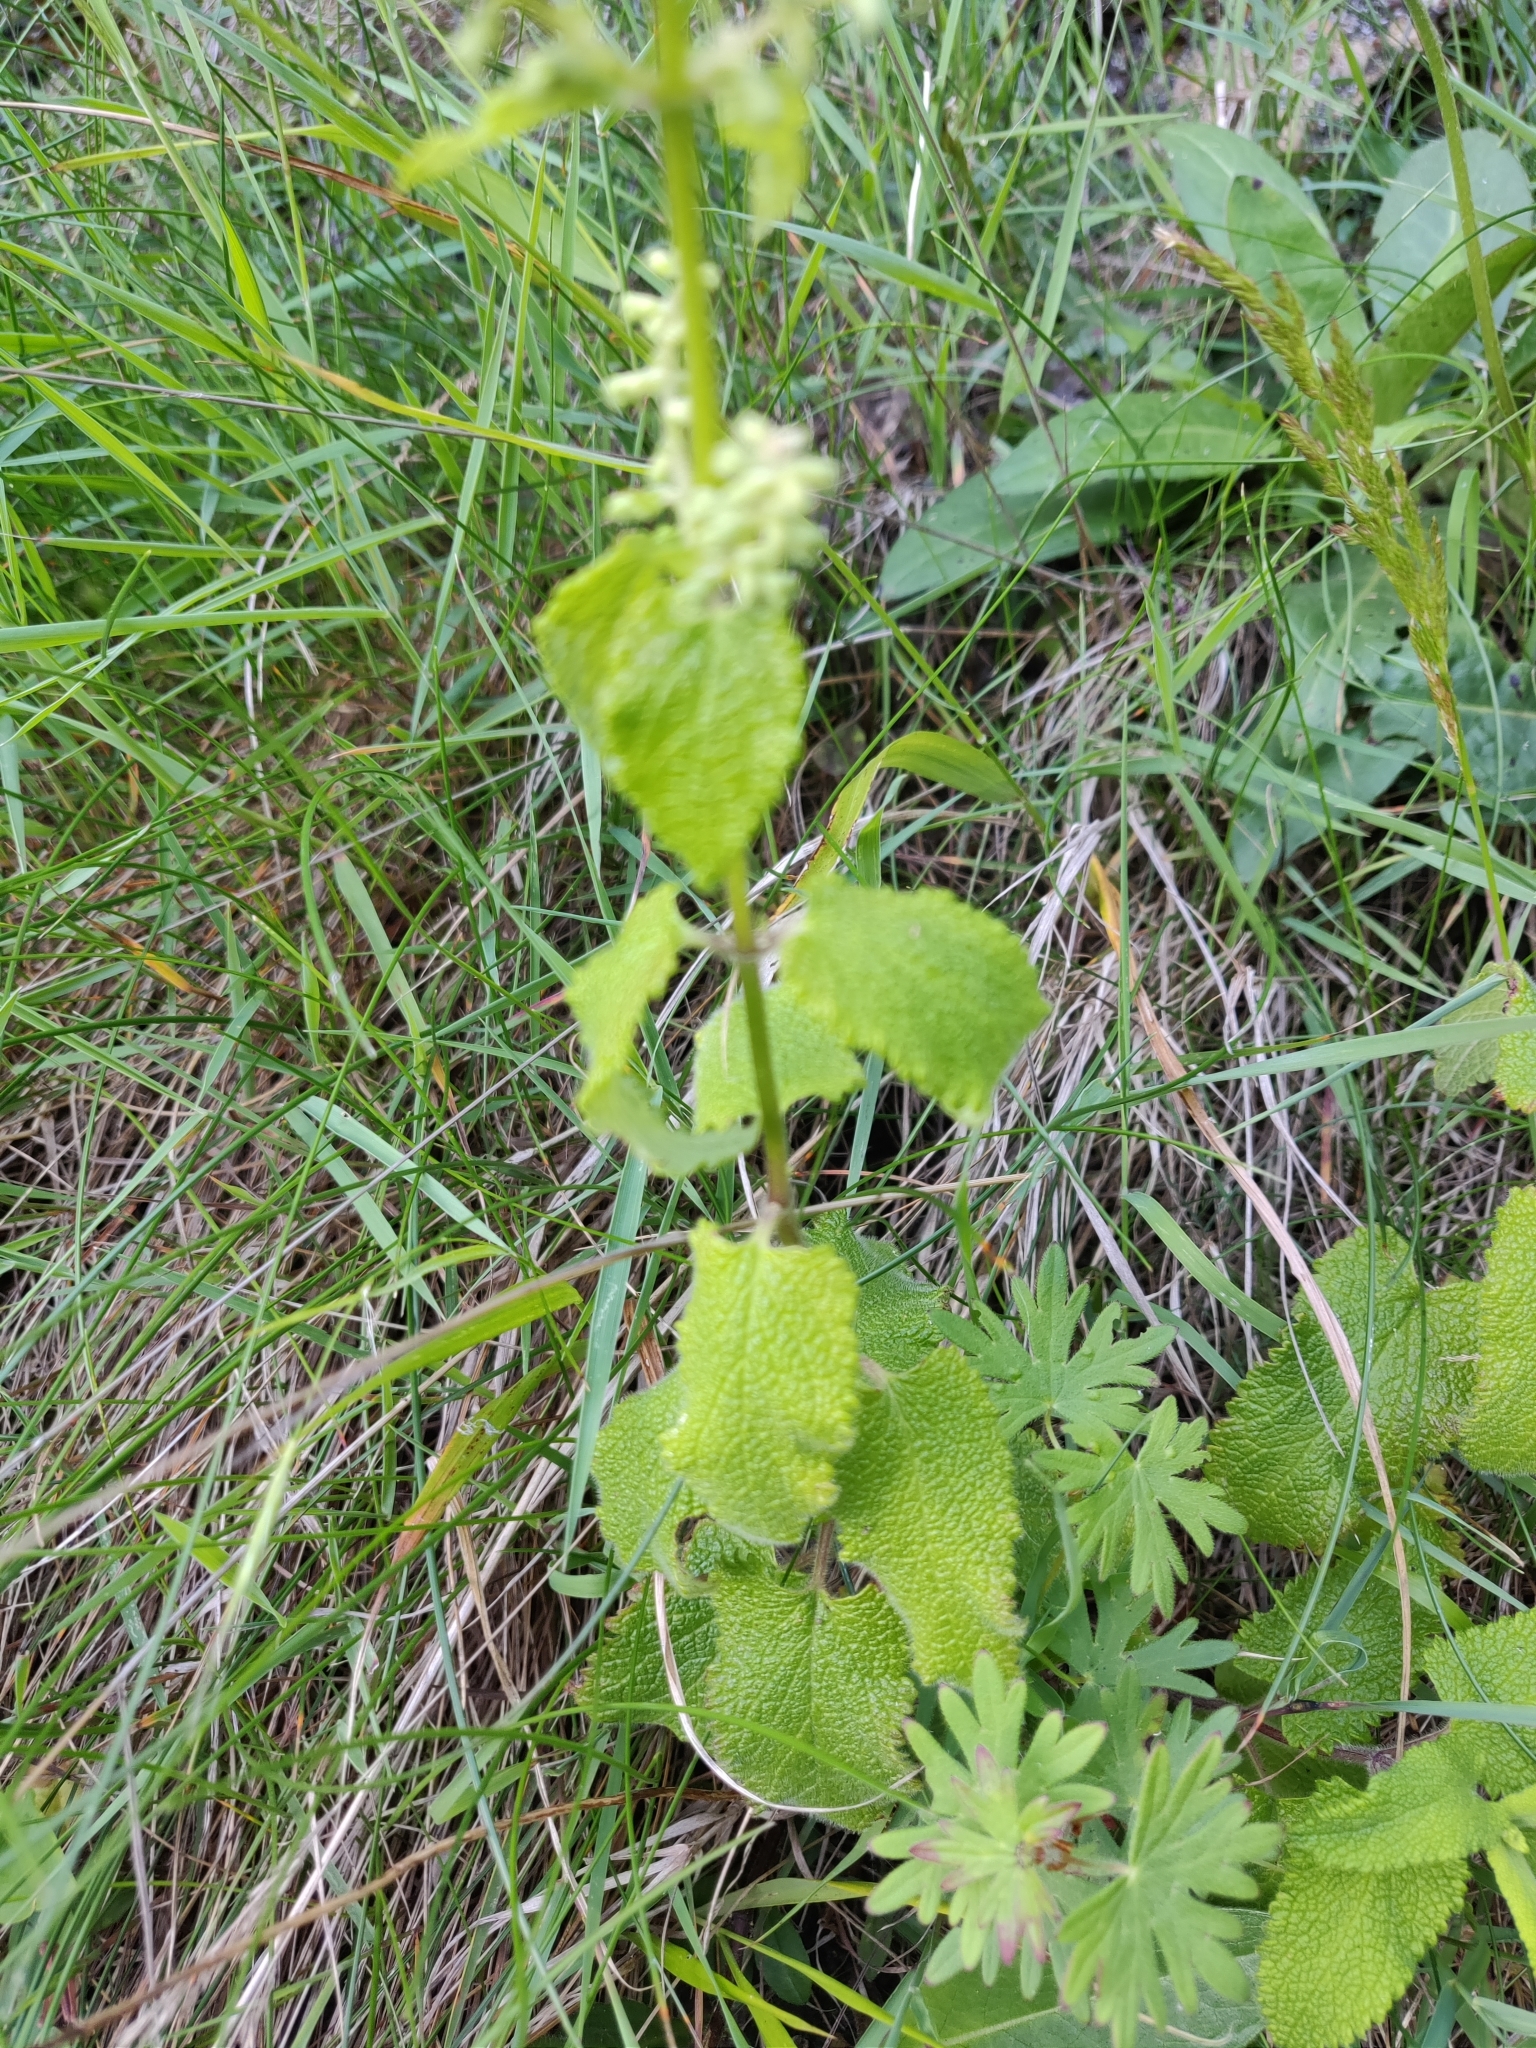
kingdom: Plantae
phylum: Tracheophyta
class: Magnoliopsida
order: Lamiales
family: Lamiaceae
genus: Teucrium
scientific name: Teucrium scorodonia
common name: Woodland germander
